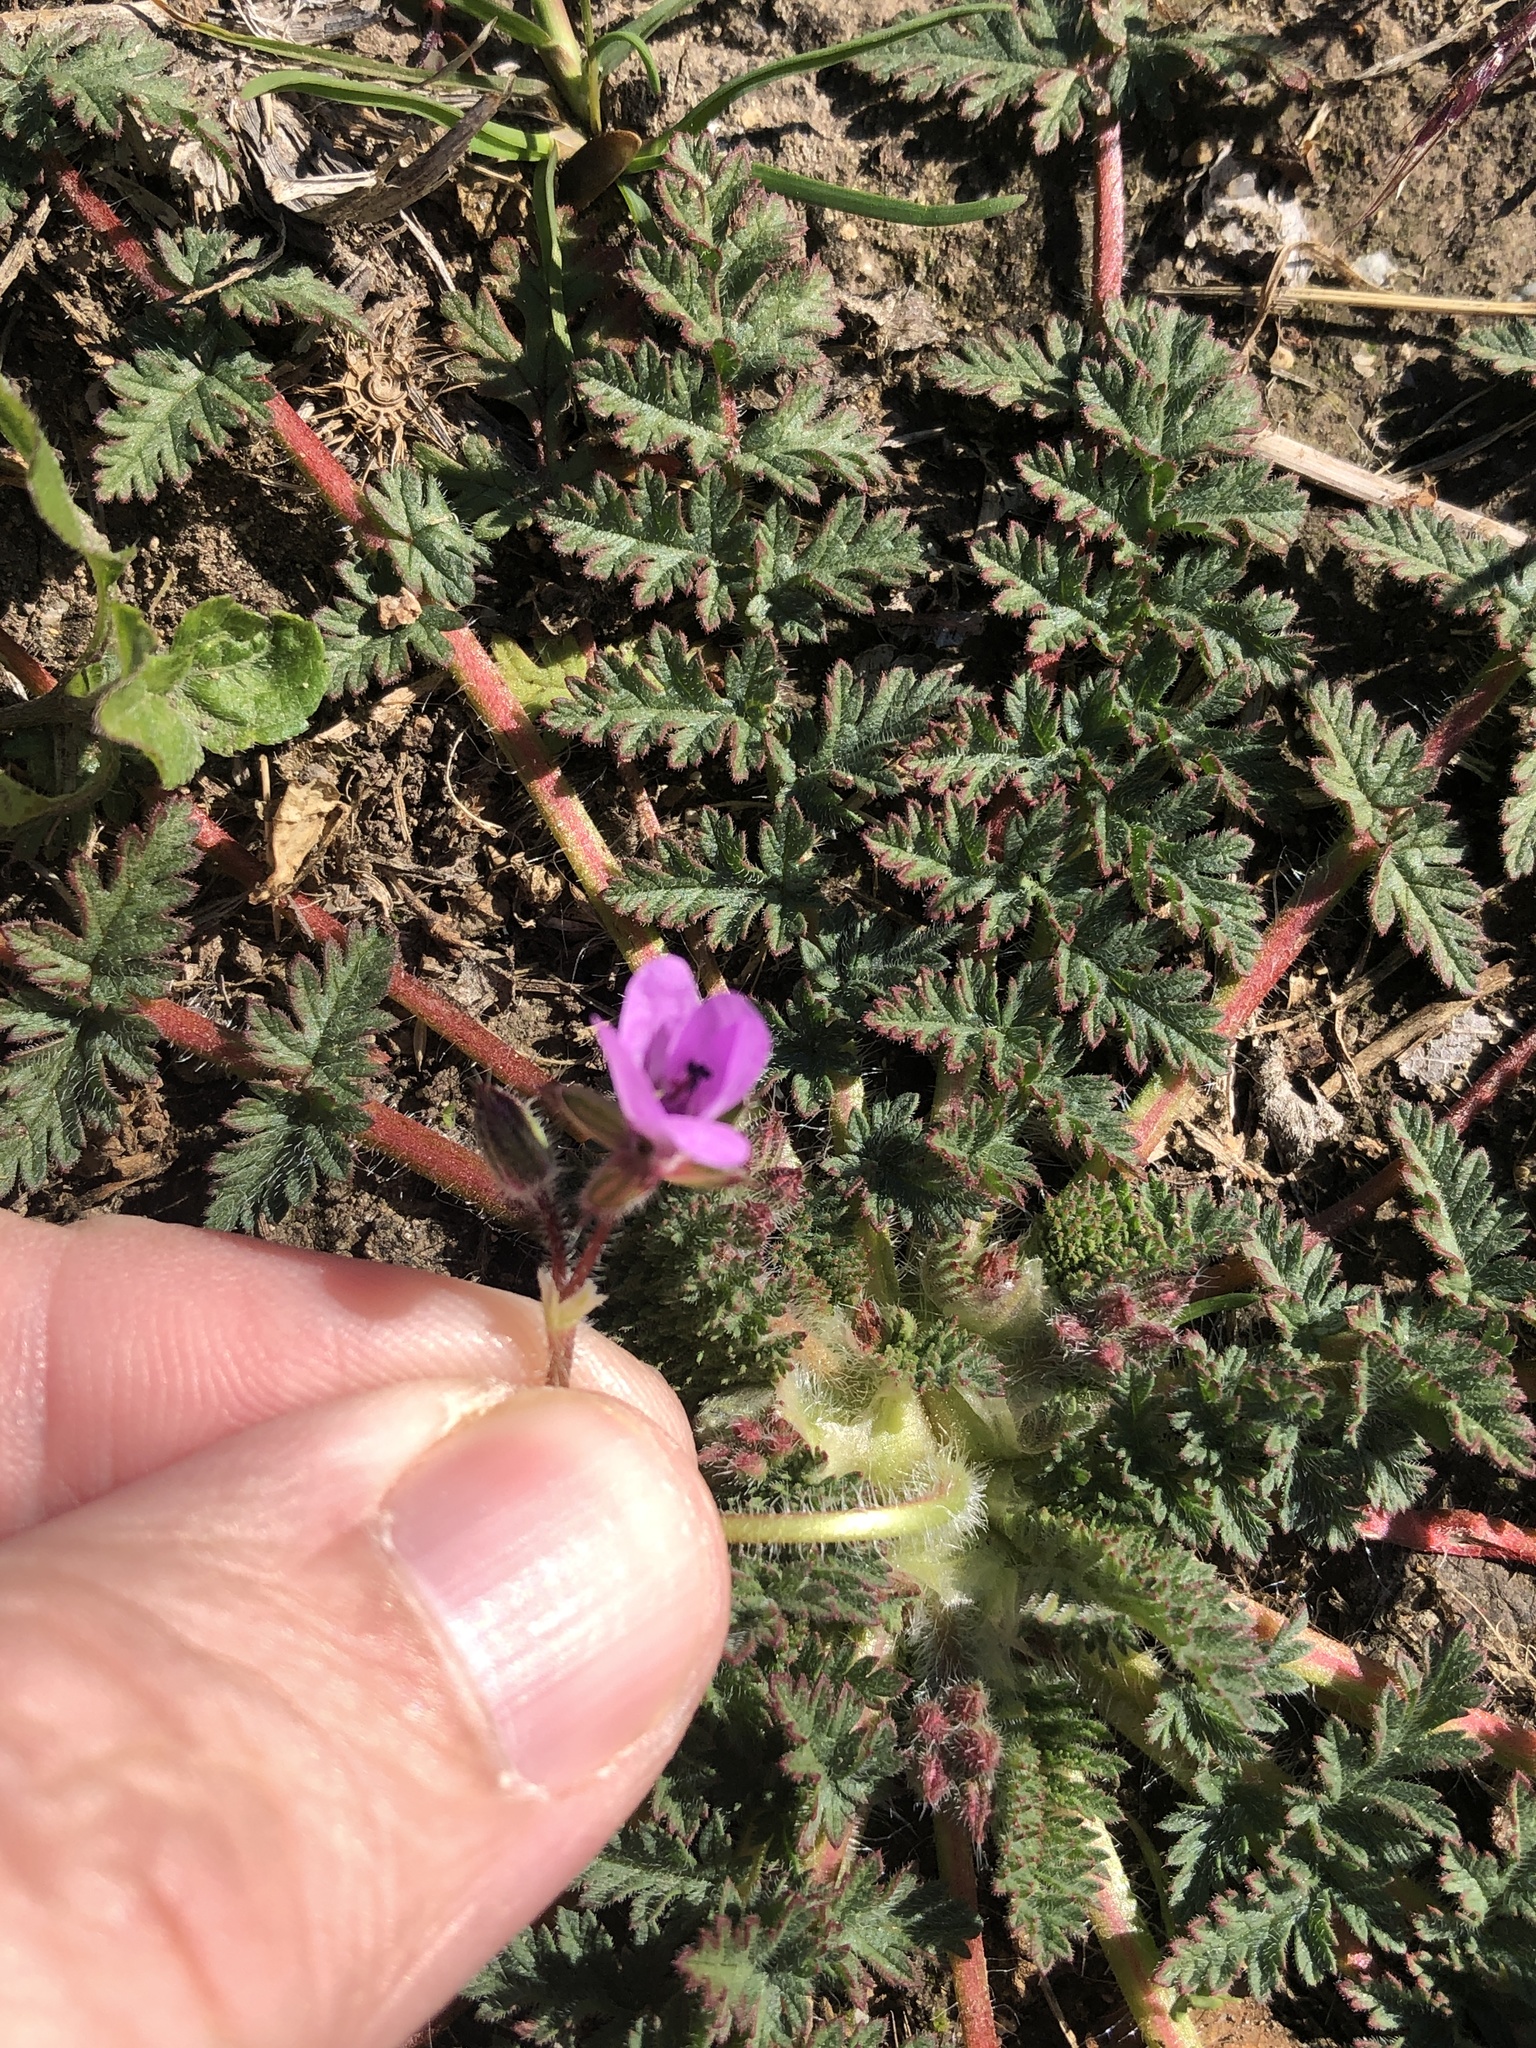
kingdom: Plantae
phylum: Tracheophyta
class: Magnoliopsida
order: Geraniales
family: Geraniaceae
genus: Erodium
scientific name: Erodium cicutarium
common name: Common stork's-bill
